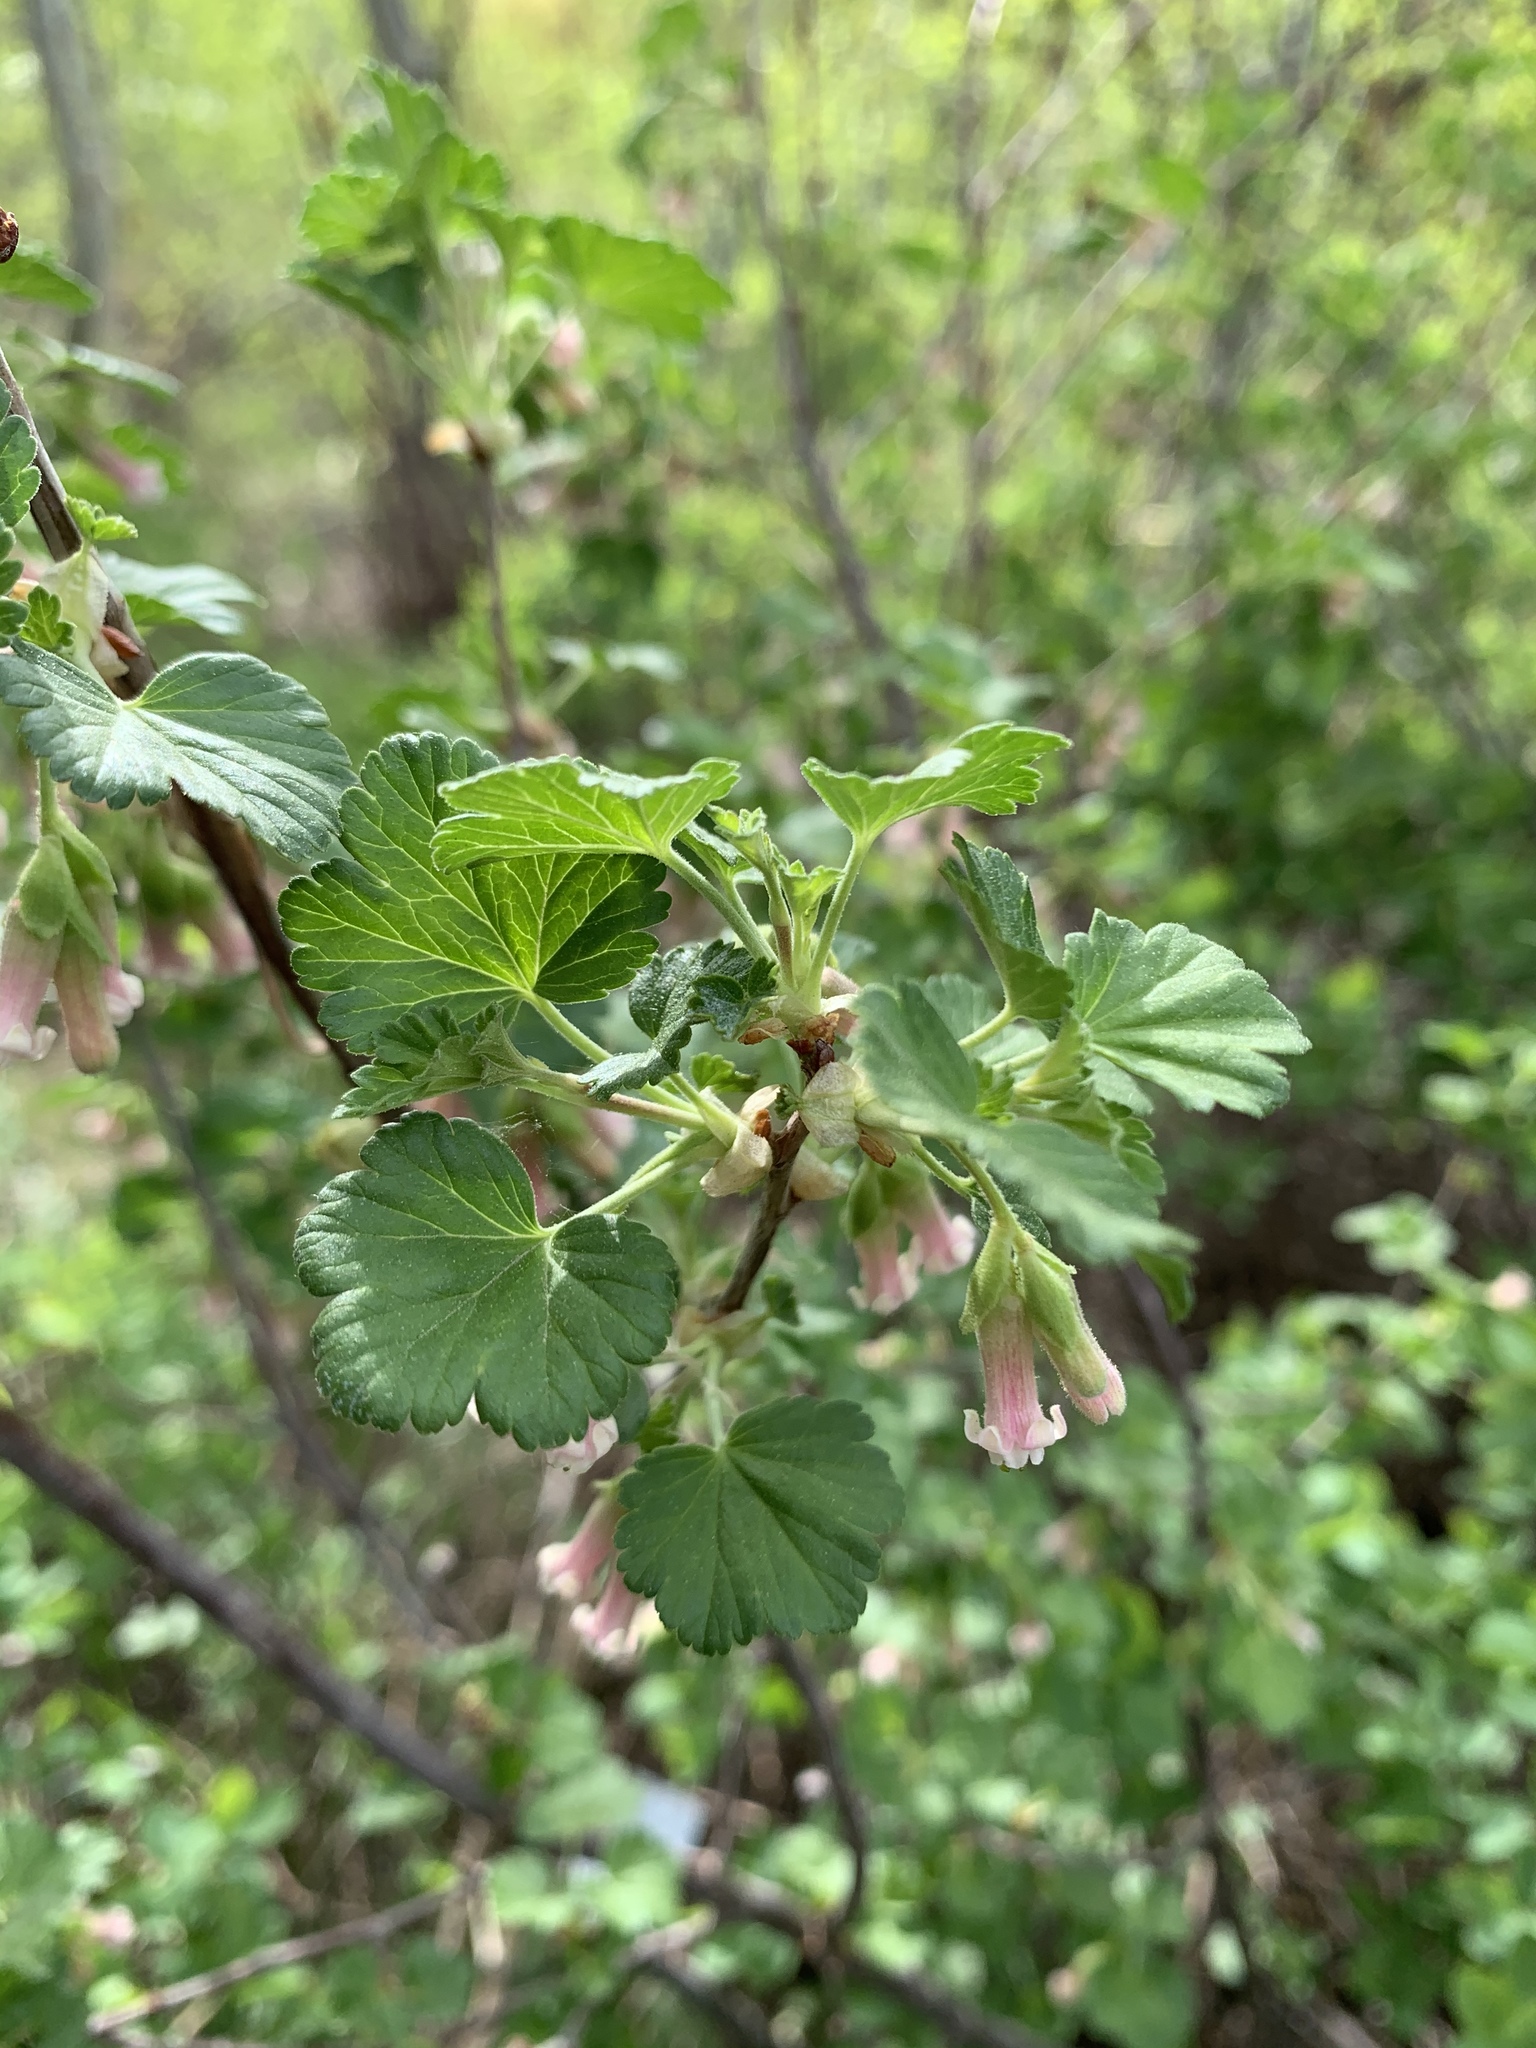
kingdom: Plantae
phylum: Tracheophyta
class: Magnoliopsida
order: Saxifragales
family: Grossulariaceae
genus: Ribes
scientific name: Ribes cereum
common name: Wax currant
